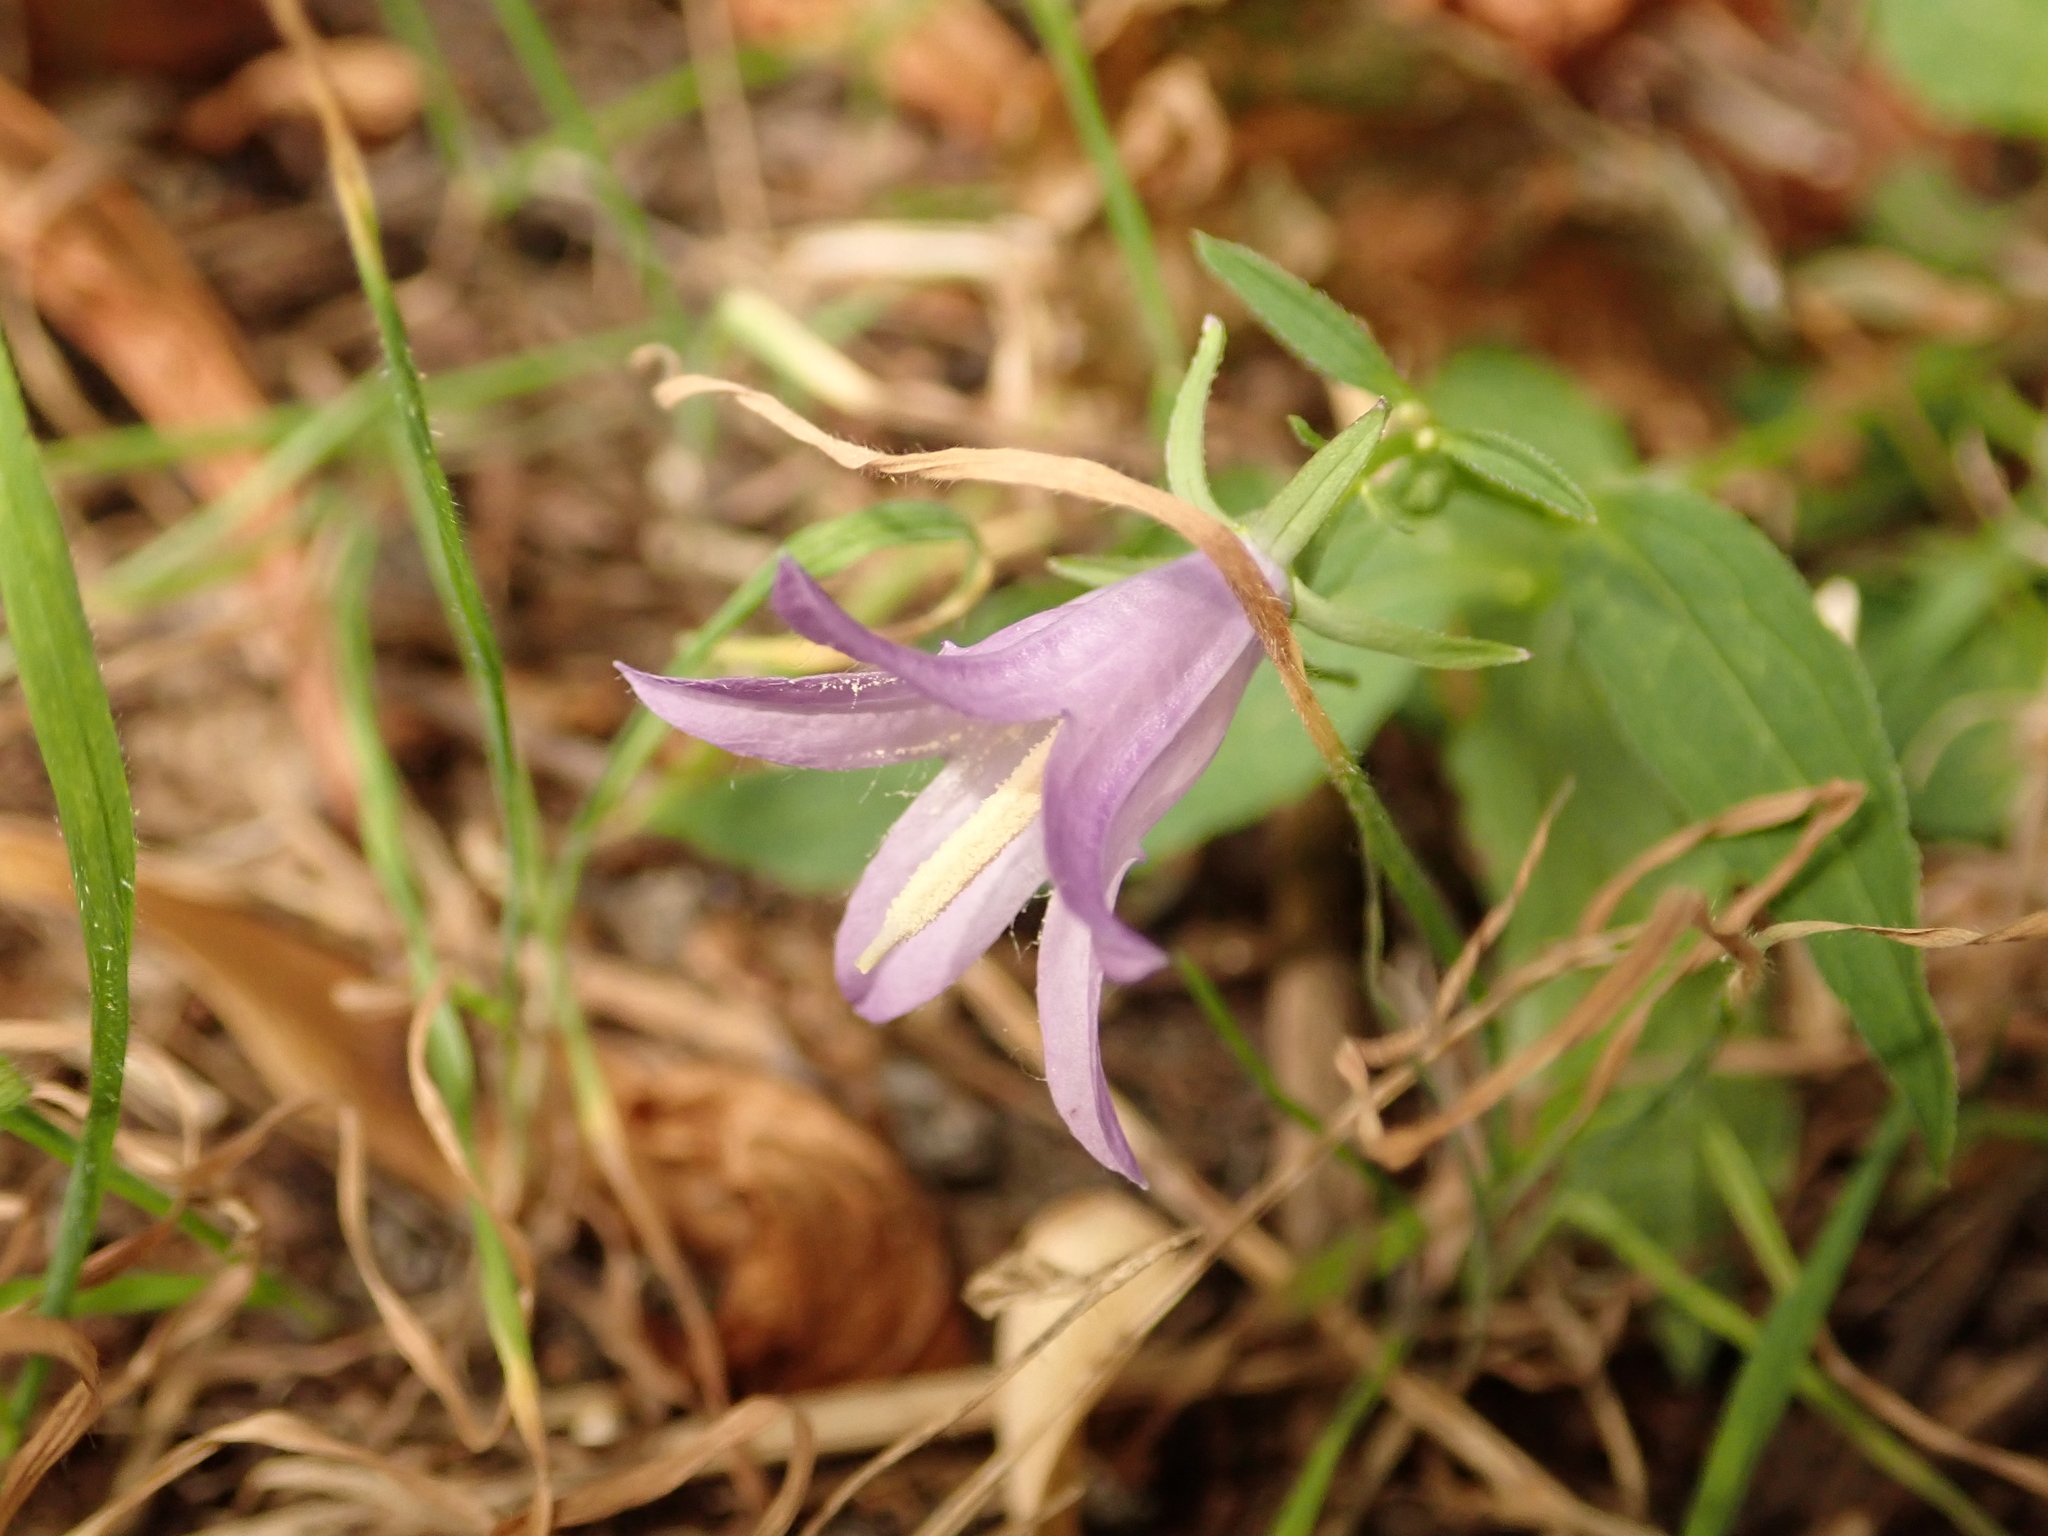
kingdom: Plantae
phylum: Tracheophyta
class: Magnoliopsida
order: Asterales
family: Campanulaceae
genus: Campanula
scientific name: Campanula rapunculoides
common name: Creeping bellflower
